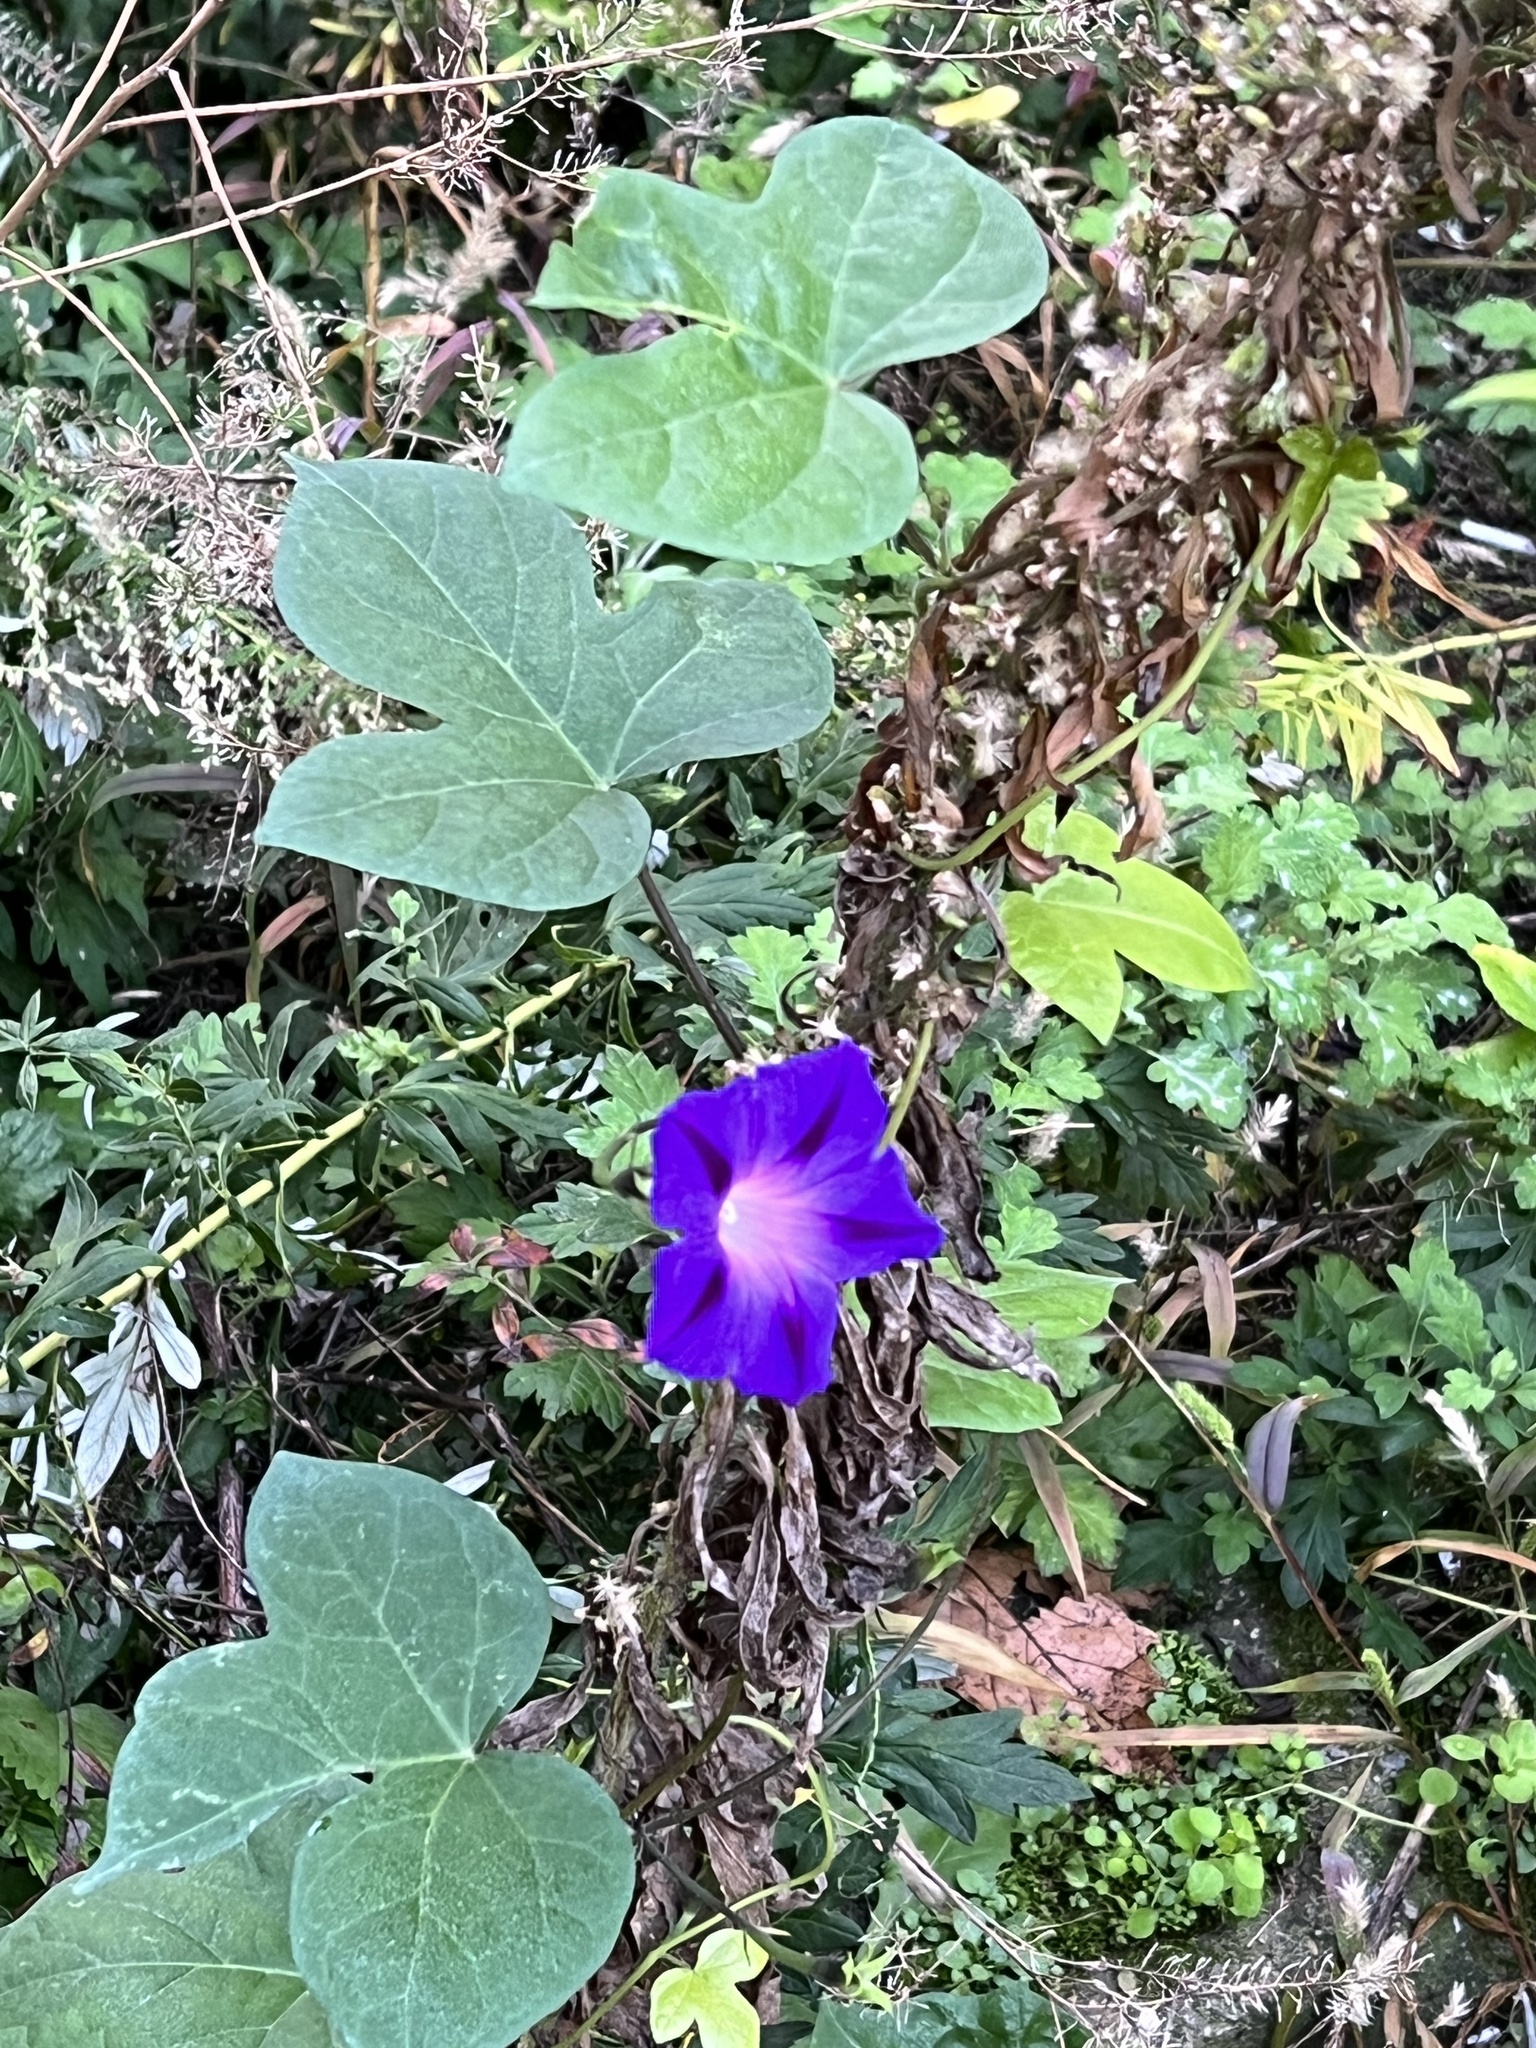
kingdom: Plantae
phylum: Tracheophyta
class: Magnoliopsida
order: Solanales
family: Convolvulaceae
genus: Ipomoea
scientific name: Ipomoea purpurea
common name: Common morning-glory
